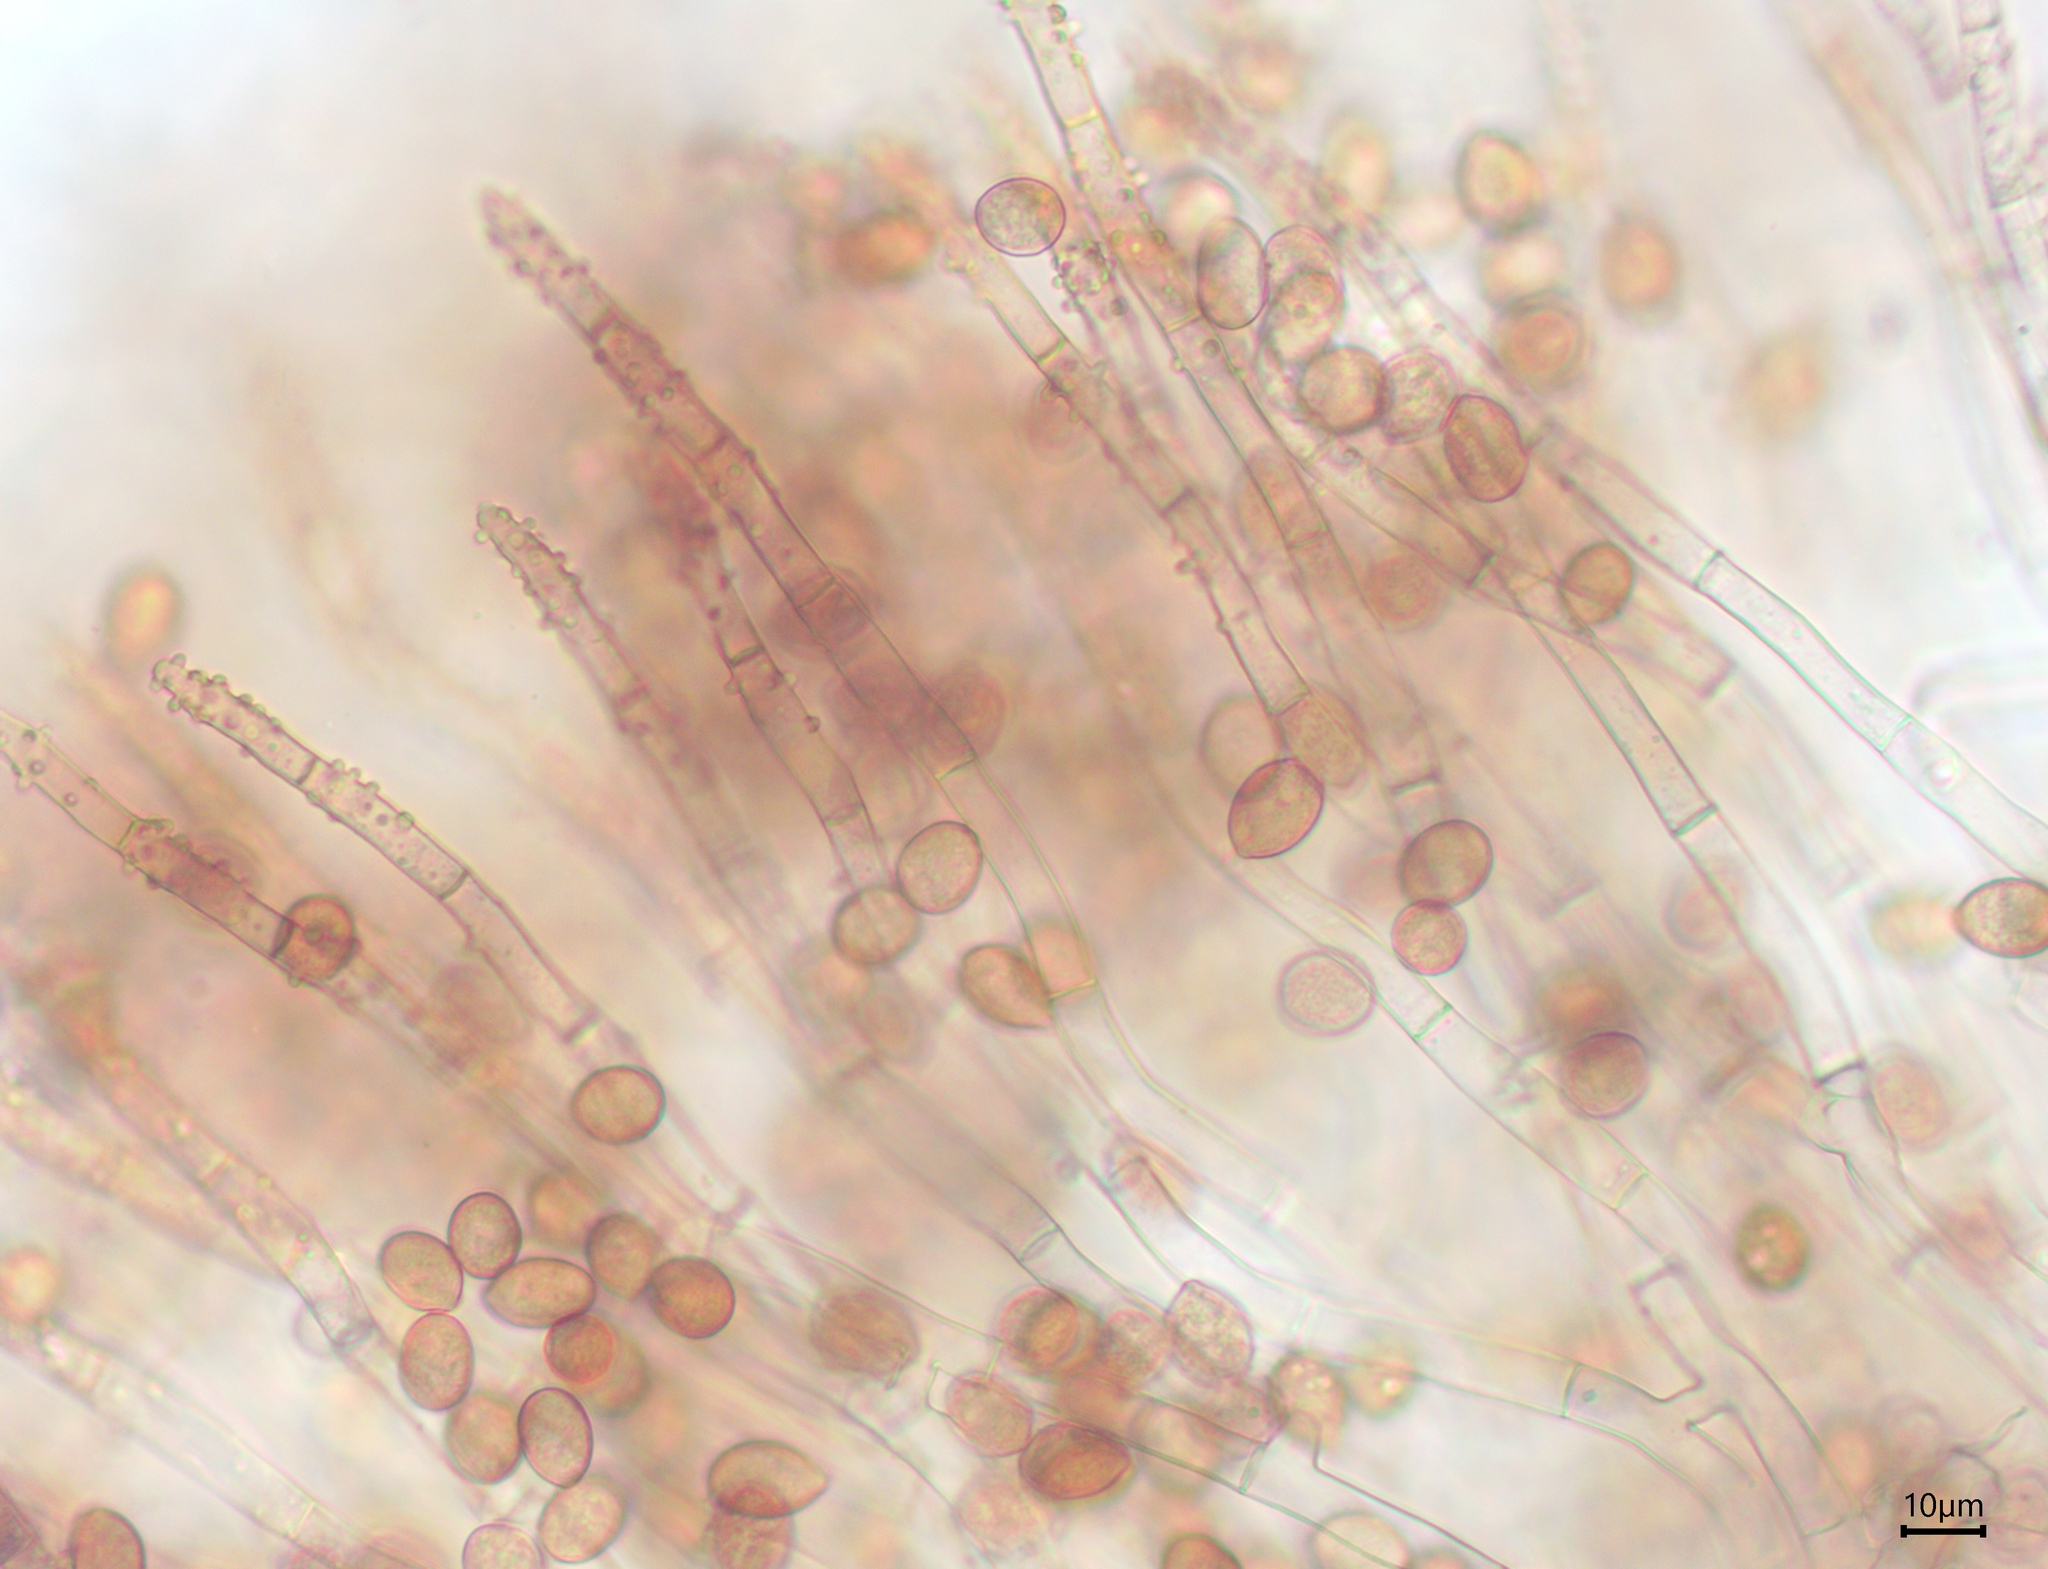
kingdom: Fungi
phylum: Basidiomycota
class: Agaricomycetes
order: Cantharellales
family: Botryobasidiaceae
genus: Botryobasidium
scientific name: Botryobasidium conspersum
